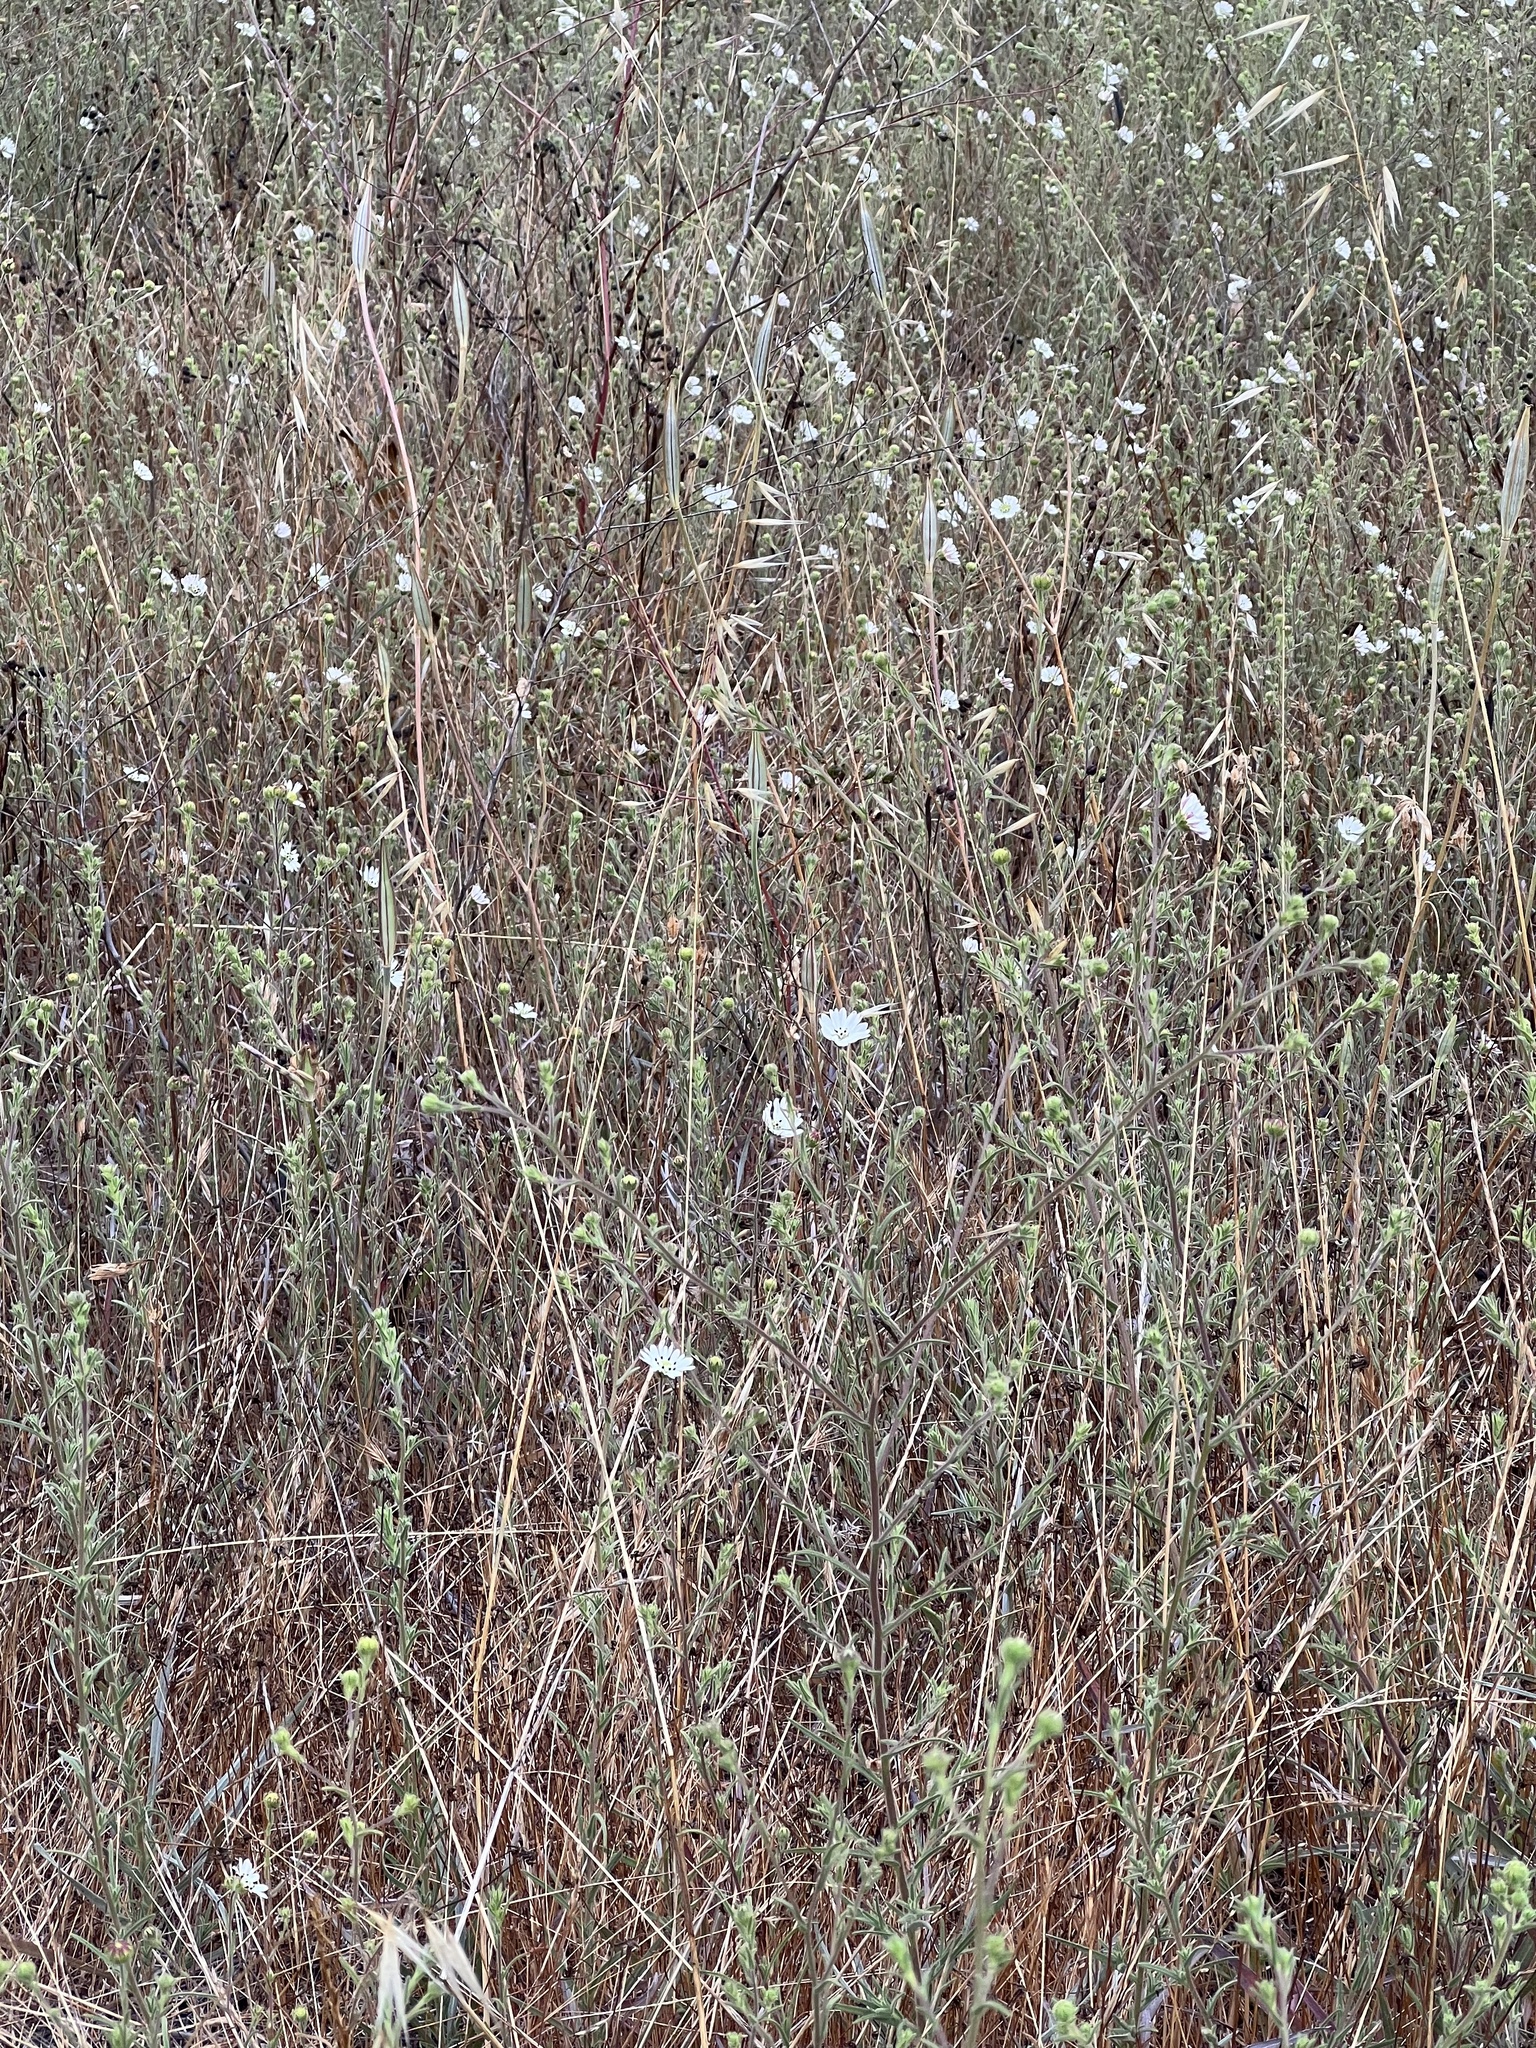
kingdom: Plantae
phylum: Tracheophyta
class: Magnoliopsida
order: Asterales
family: Asteraceae
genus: Hemizonia
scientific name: Hemizonia congesta
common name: Hayfield tarweed
